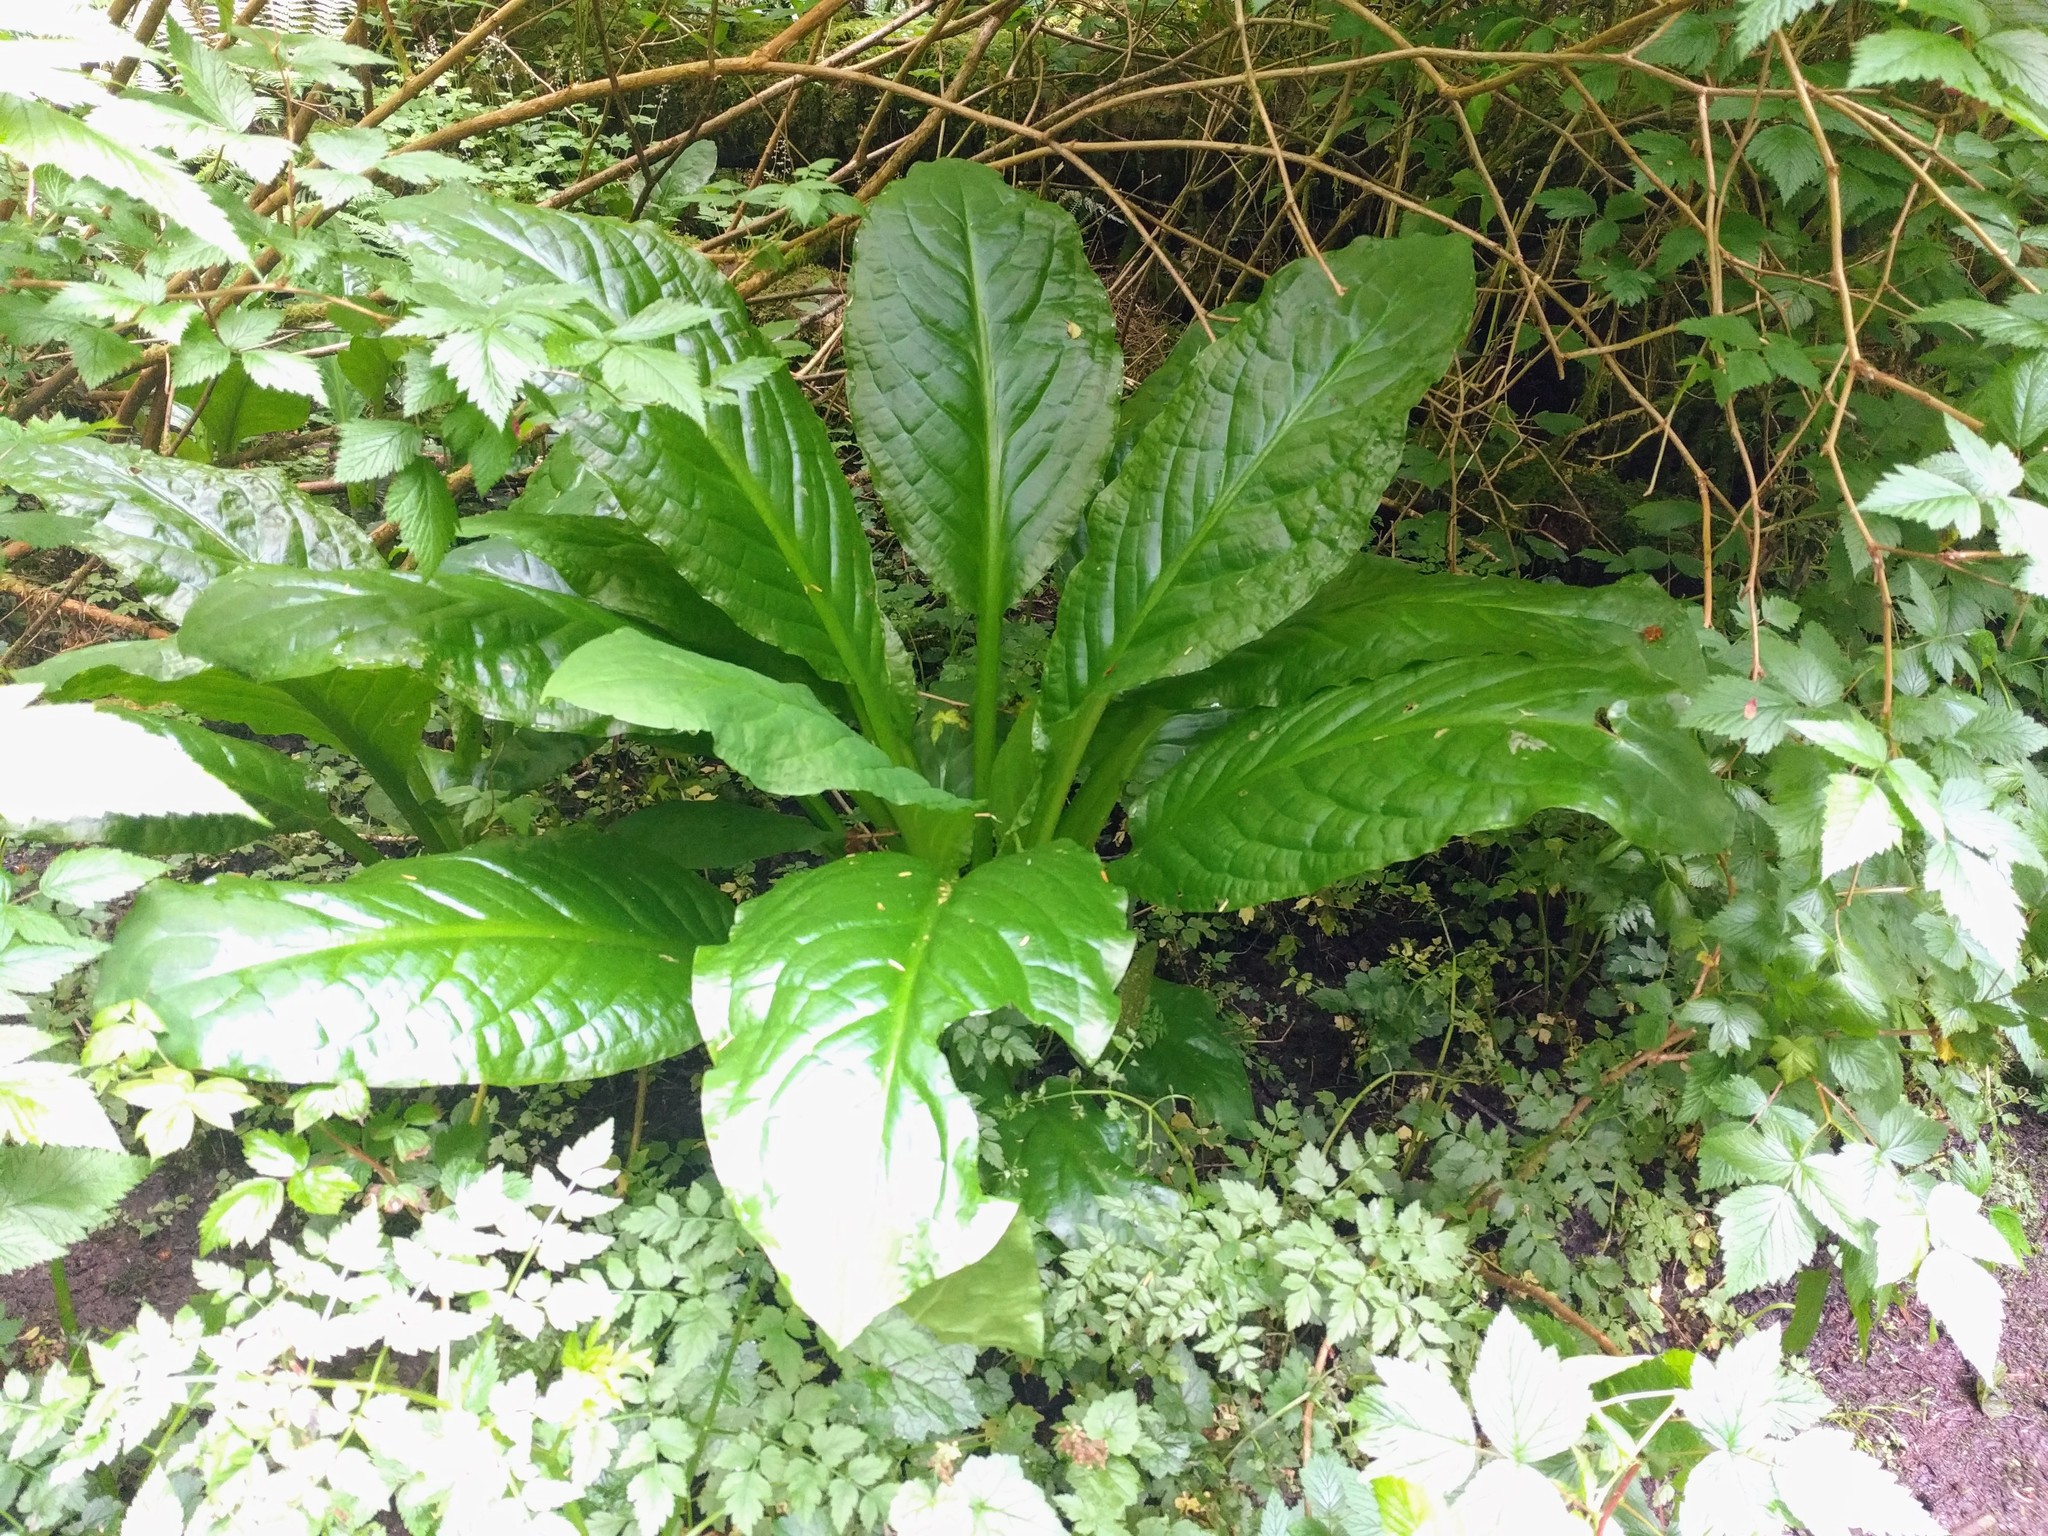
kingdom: Plantae
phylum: Tracheophyta
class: Liliopsida
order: Alismatales
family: Araceae
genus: Lysichiton
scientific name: Lysichiton americanus
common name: American skunk cabbage
